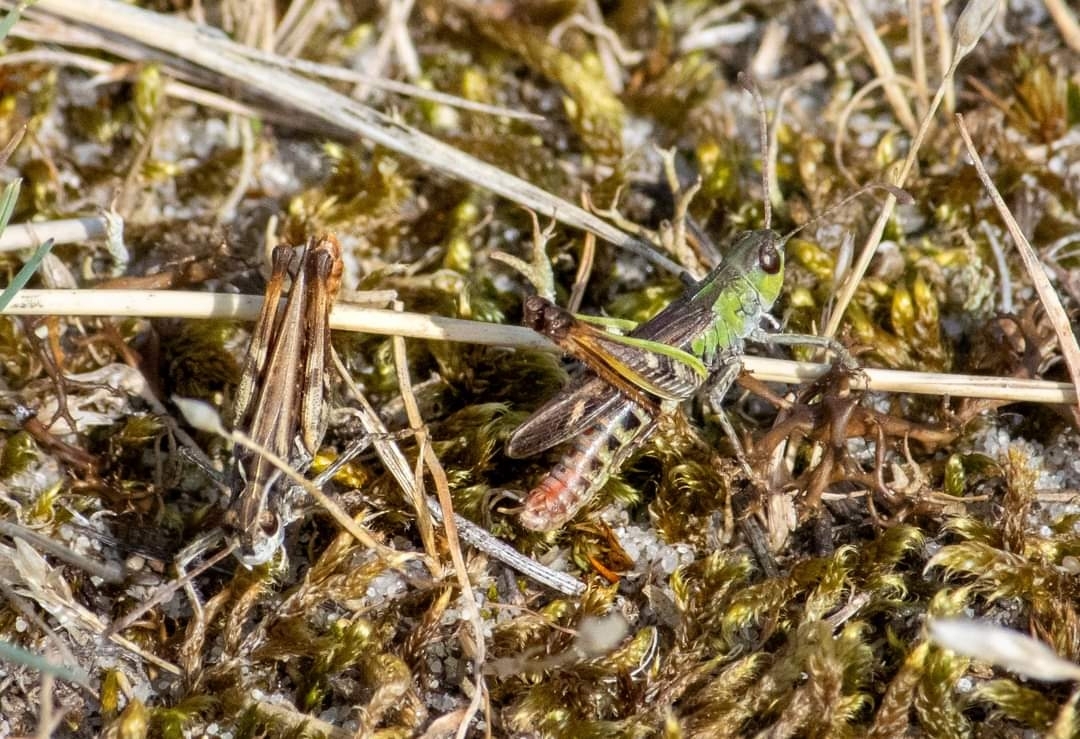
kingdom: Animalia
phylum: Arthropoda
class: Insecta
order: Orthoptera
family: Acrididae
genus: Myrmeleotettix
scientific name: Myrmeleotettix maculatus
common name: Mottled grasshopper
